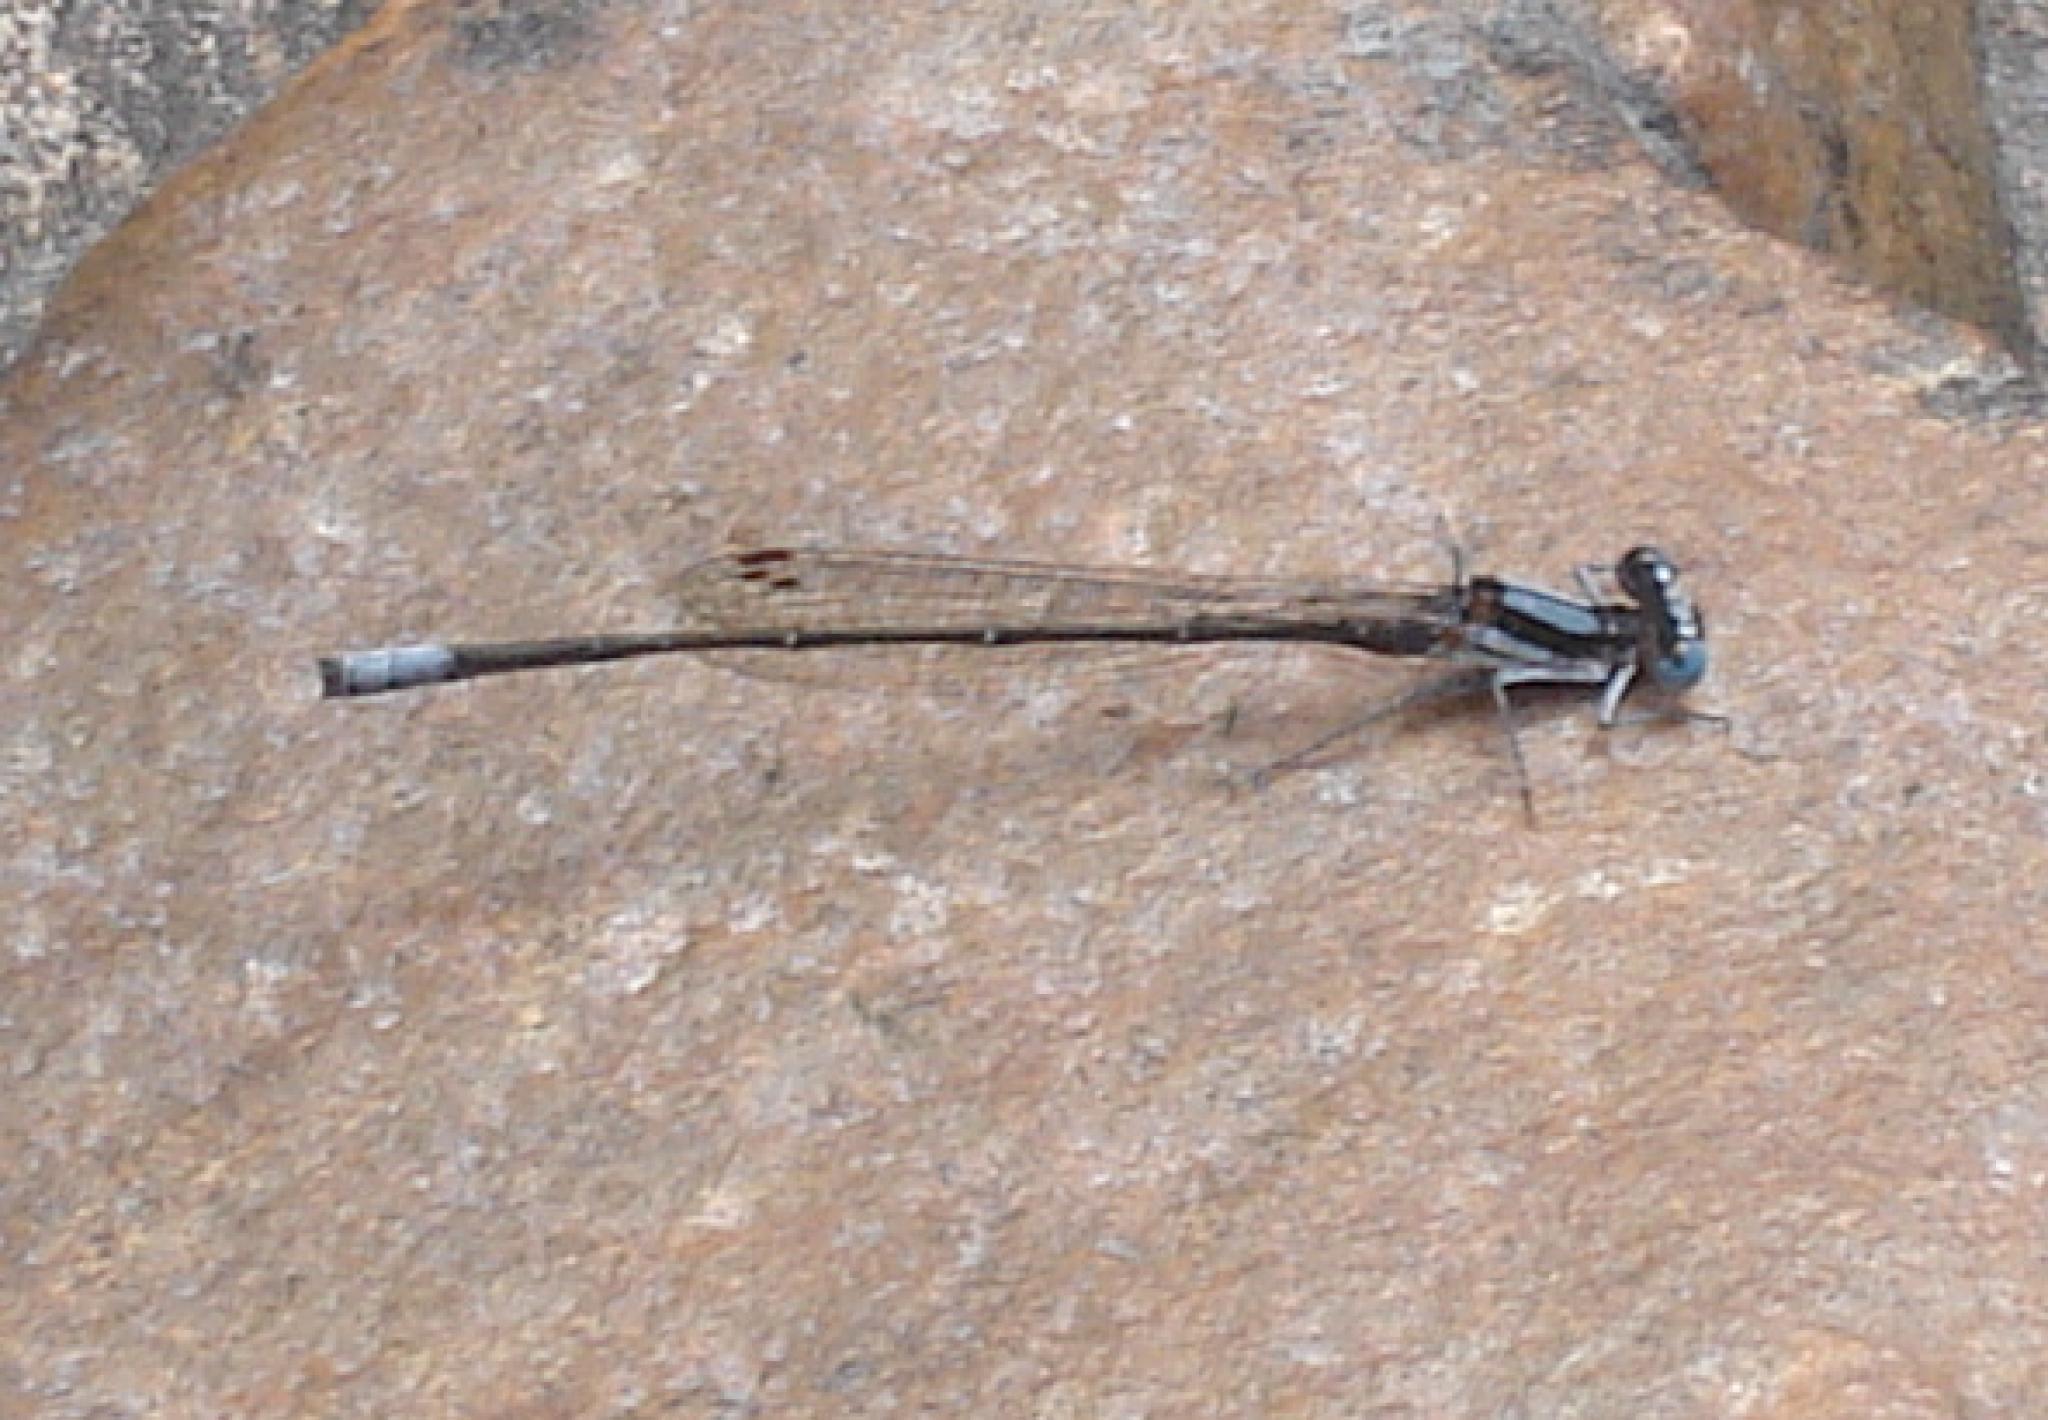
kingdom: Animalia
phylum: Arthropoda
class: Insecta
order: Odonata
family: Platycnemididae
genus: Elattoneura
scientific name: Elattoneura glauca
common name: Common threadtail
